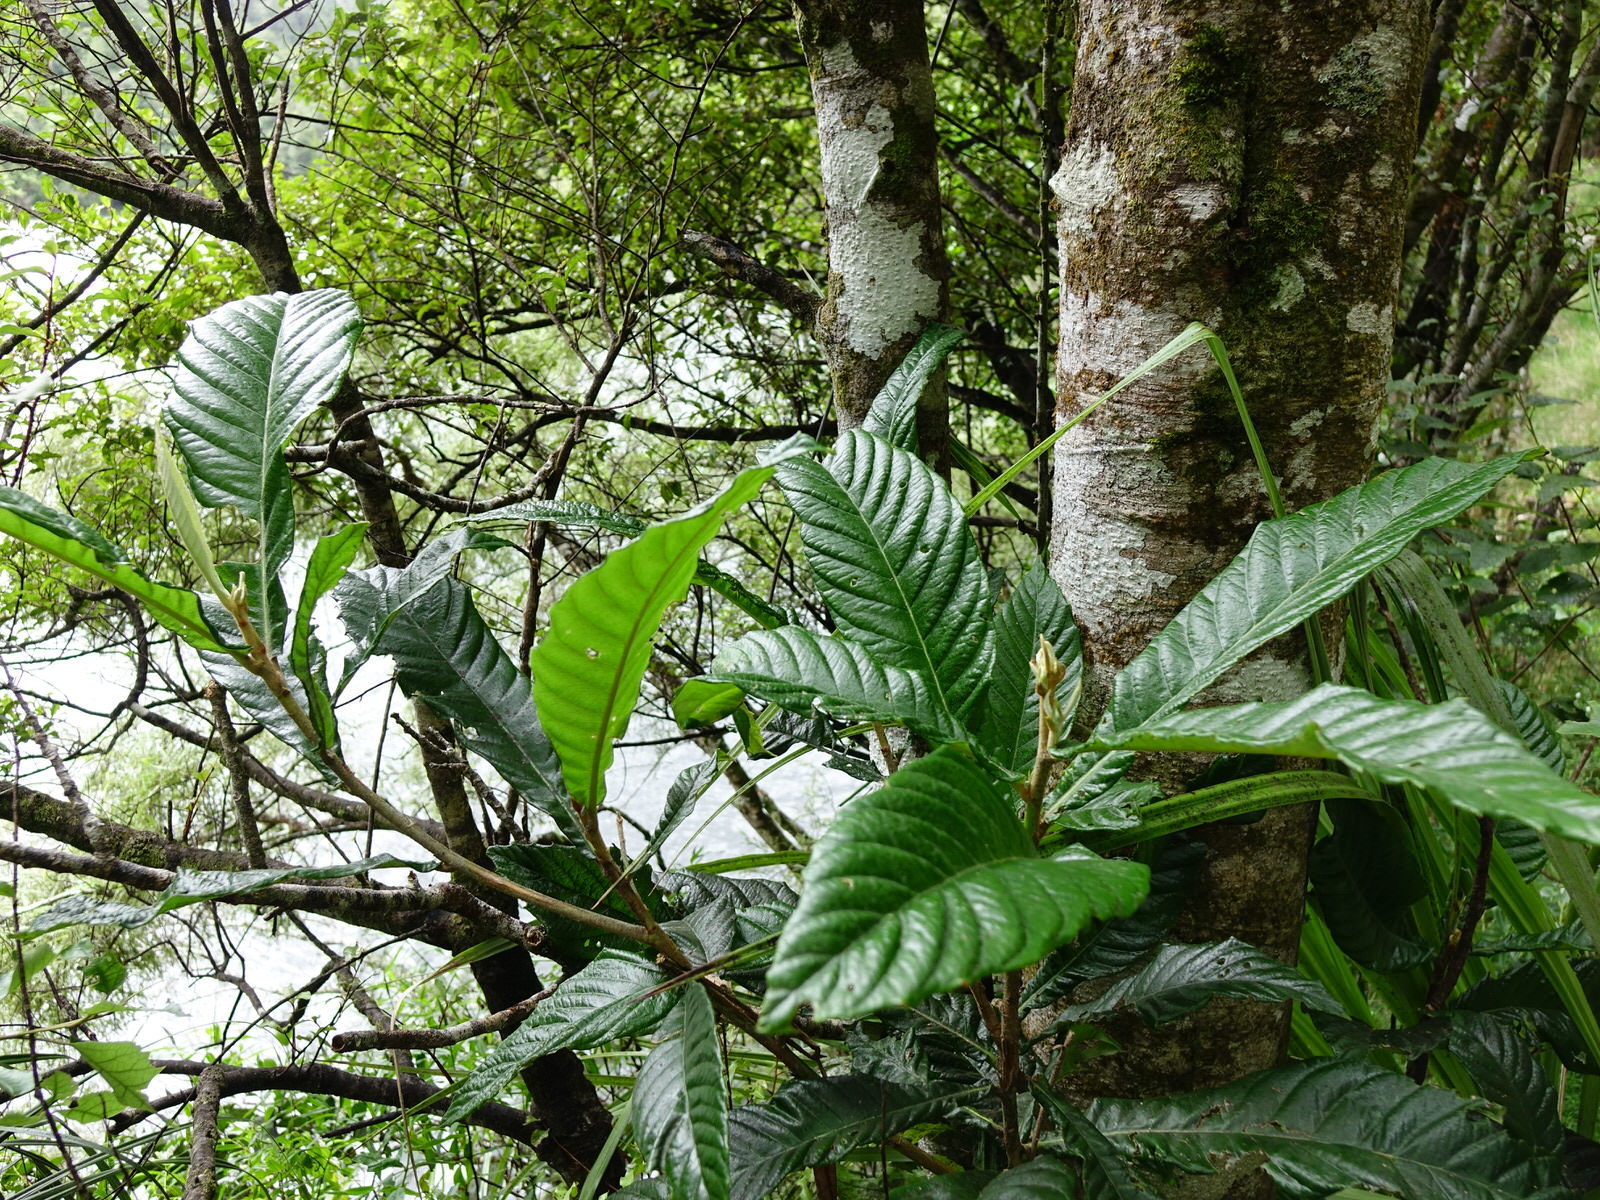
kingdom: Plantae
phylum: Tracheophyta
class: Magnoliopsida
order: Rosales
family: Rosaceae
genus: Rhaphiolepis
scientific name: Rhaphiolepis bibas
